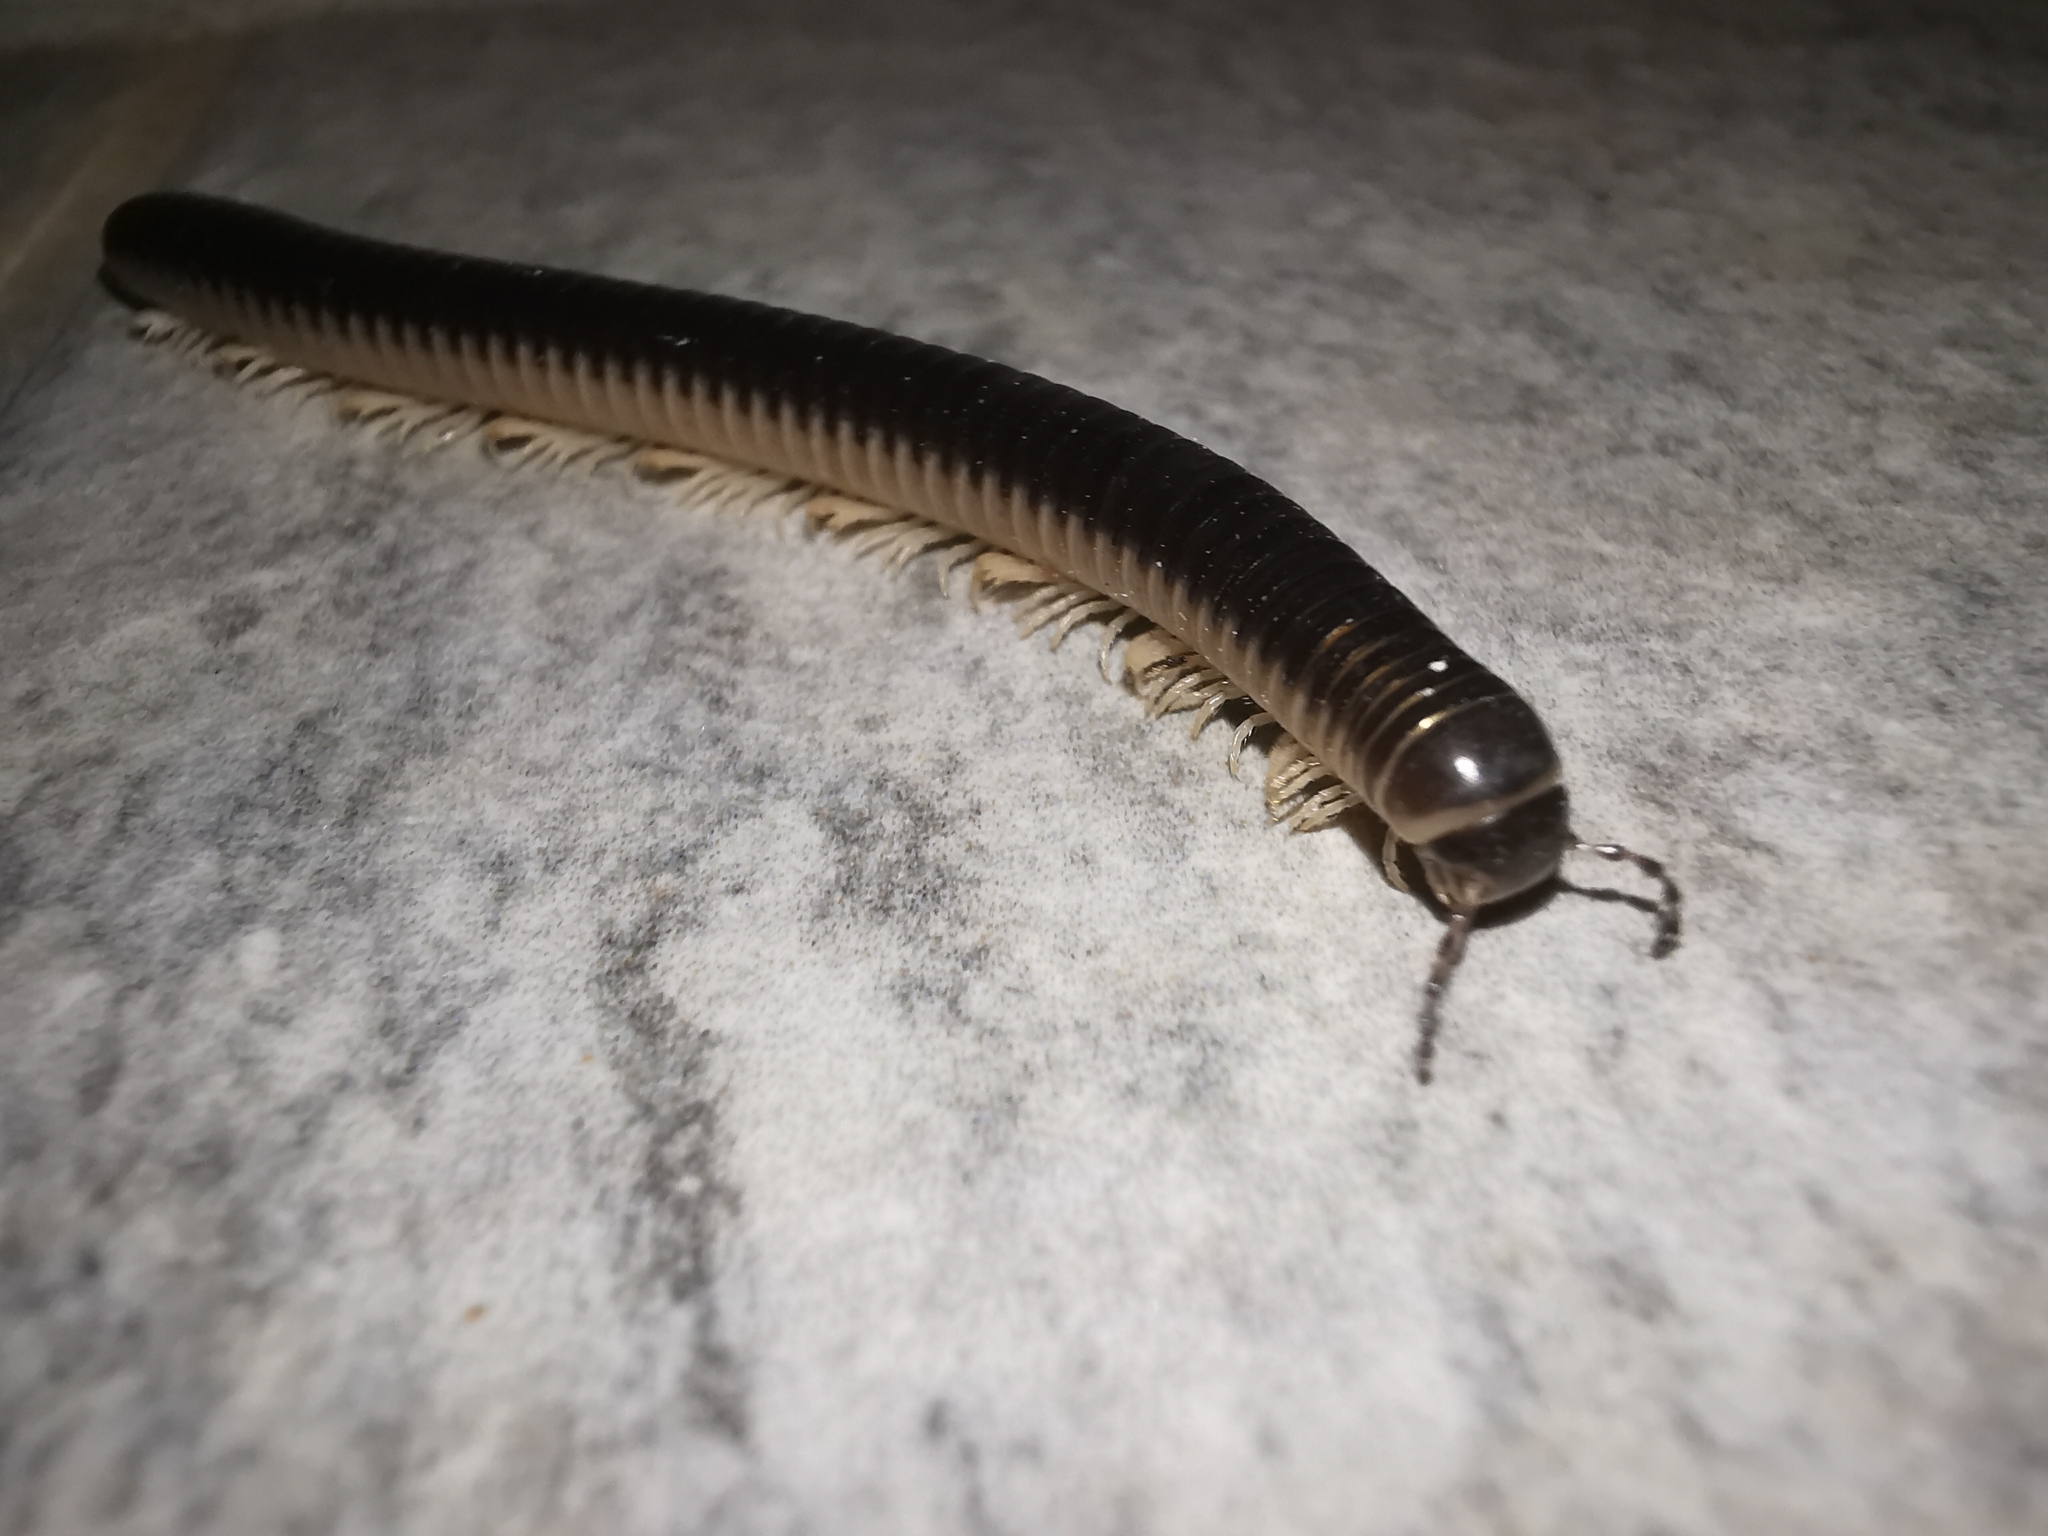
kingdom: Animalia
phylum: Arthropoda
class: Diplopoda
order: Julida
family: Julidae
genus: Pachyiulus
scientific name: Pachyiulus flavipes
